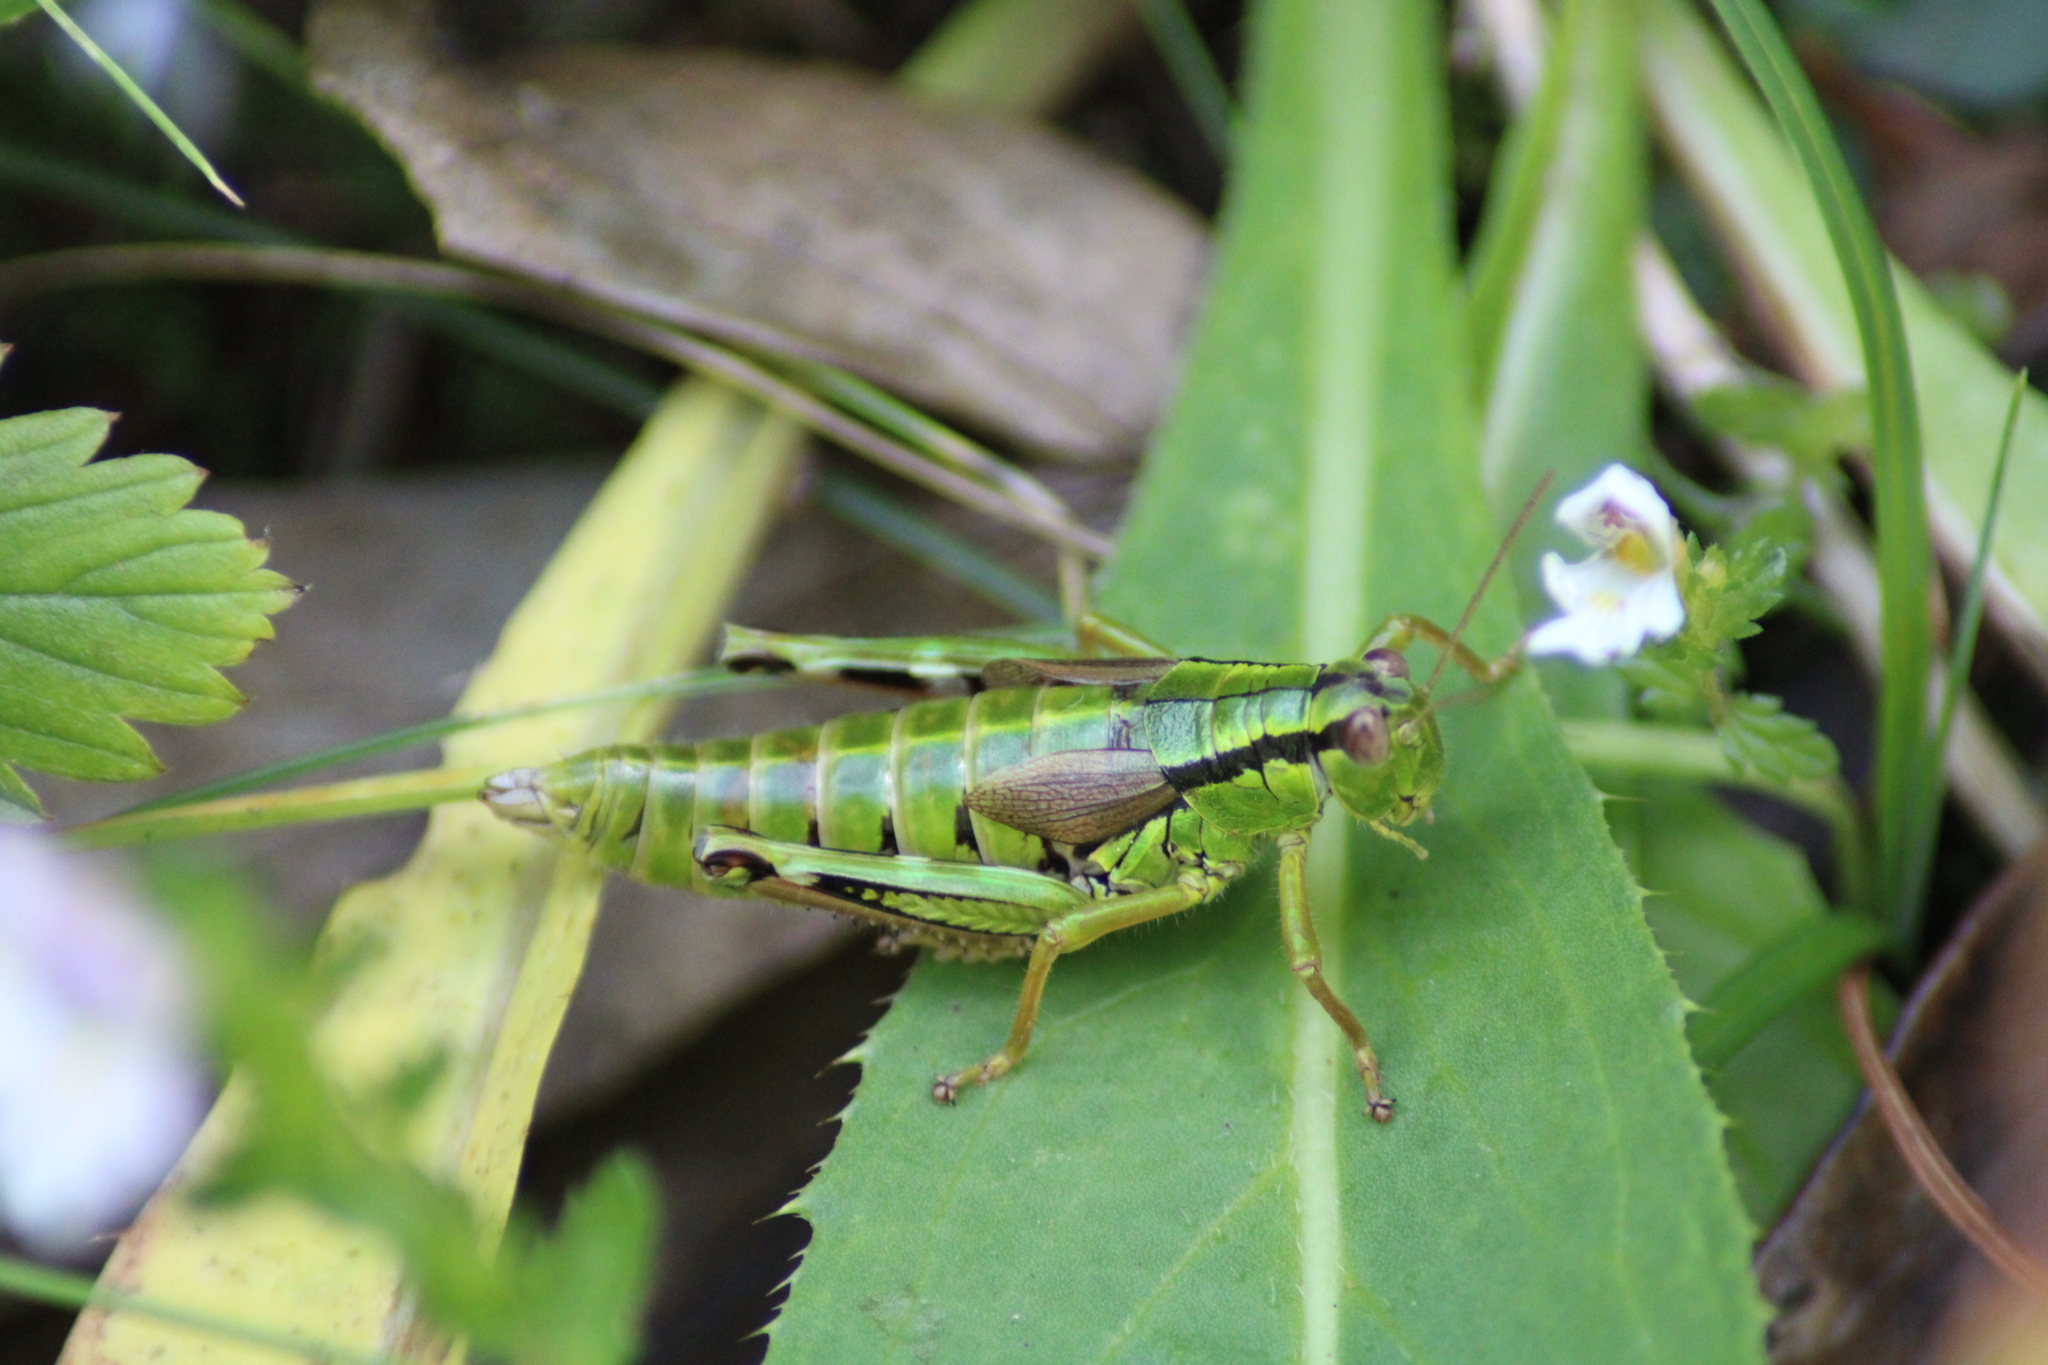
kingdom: Animalia
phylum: Arthropoda
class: Insecta
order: Orthoptera
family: Acrididae
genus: Miramella
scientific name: Miramella alpina
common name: Green mountain grasshopper
